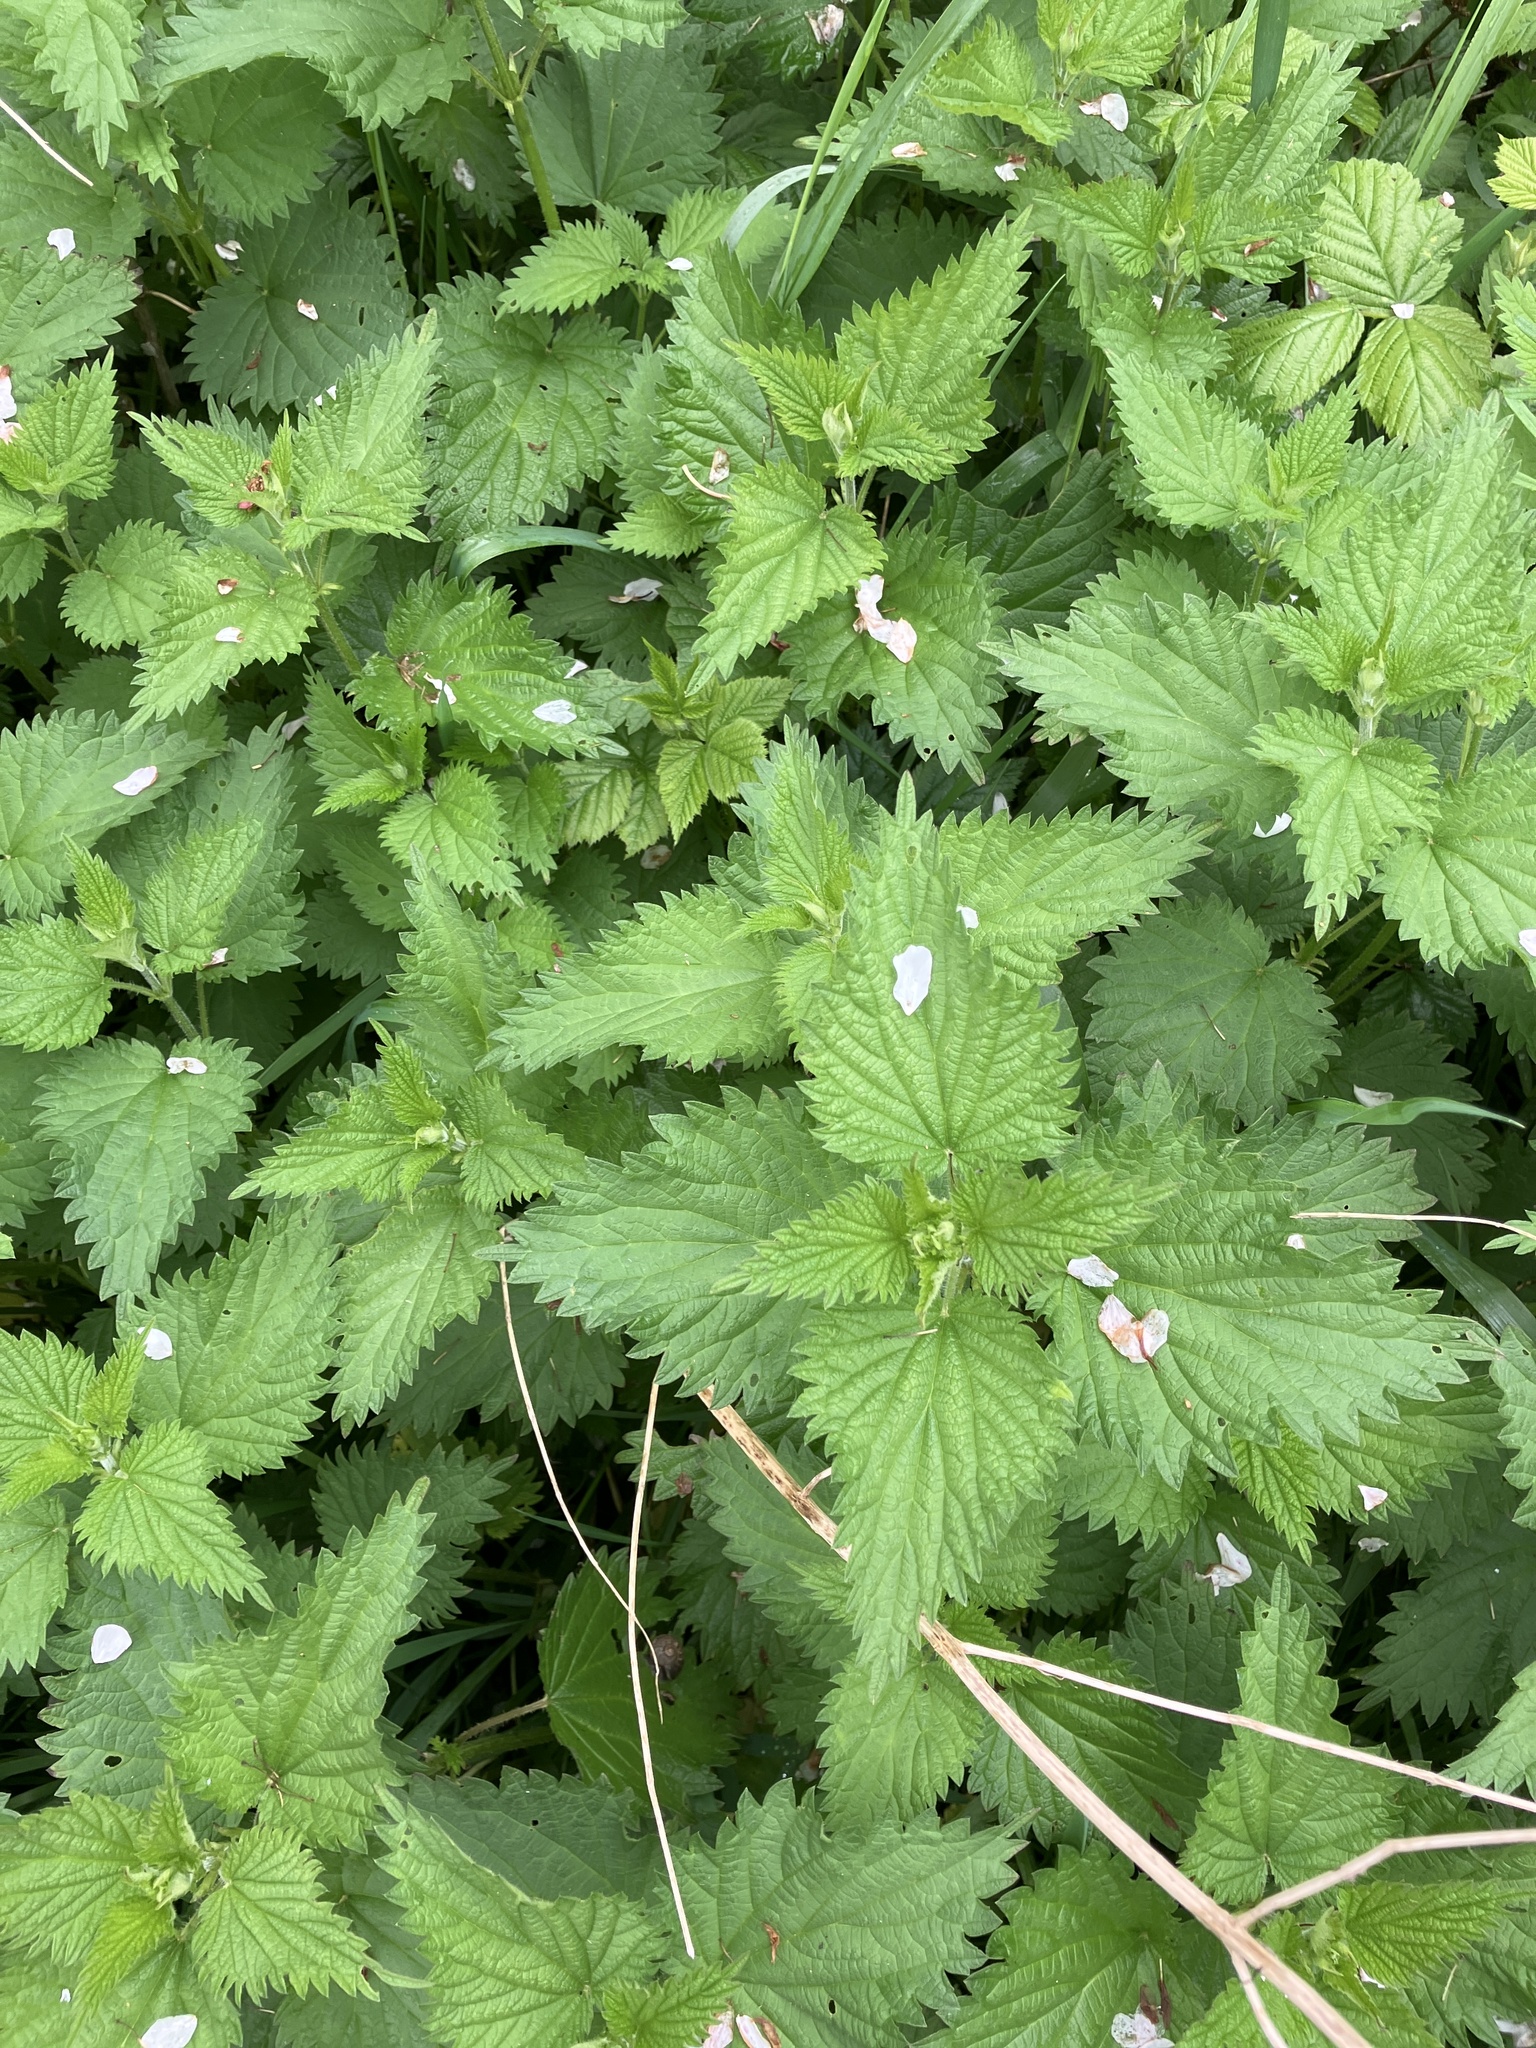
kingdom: Plantae
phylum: Tracheophyta
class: Magnoliopsida
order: Rosales
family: Urticaceae
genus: Urtica
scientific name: Urtica dioica
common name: Common nettle
